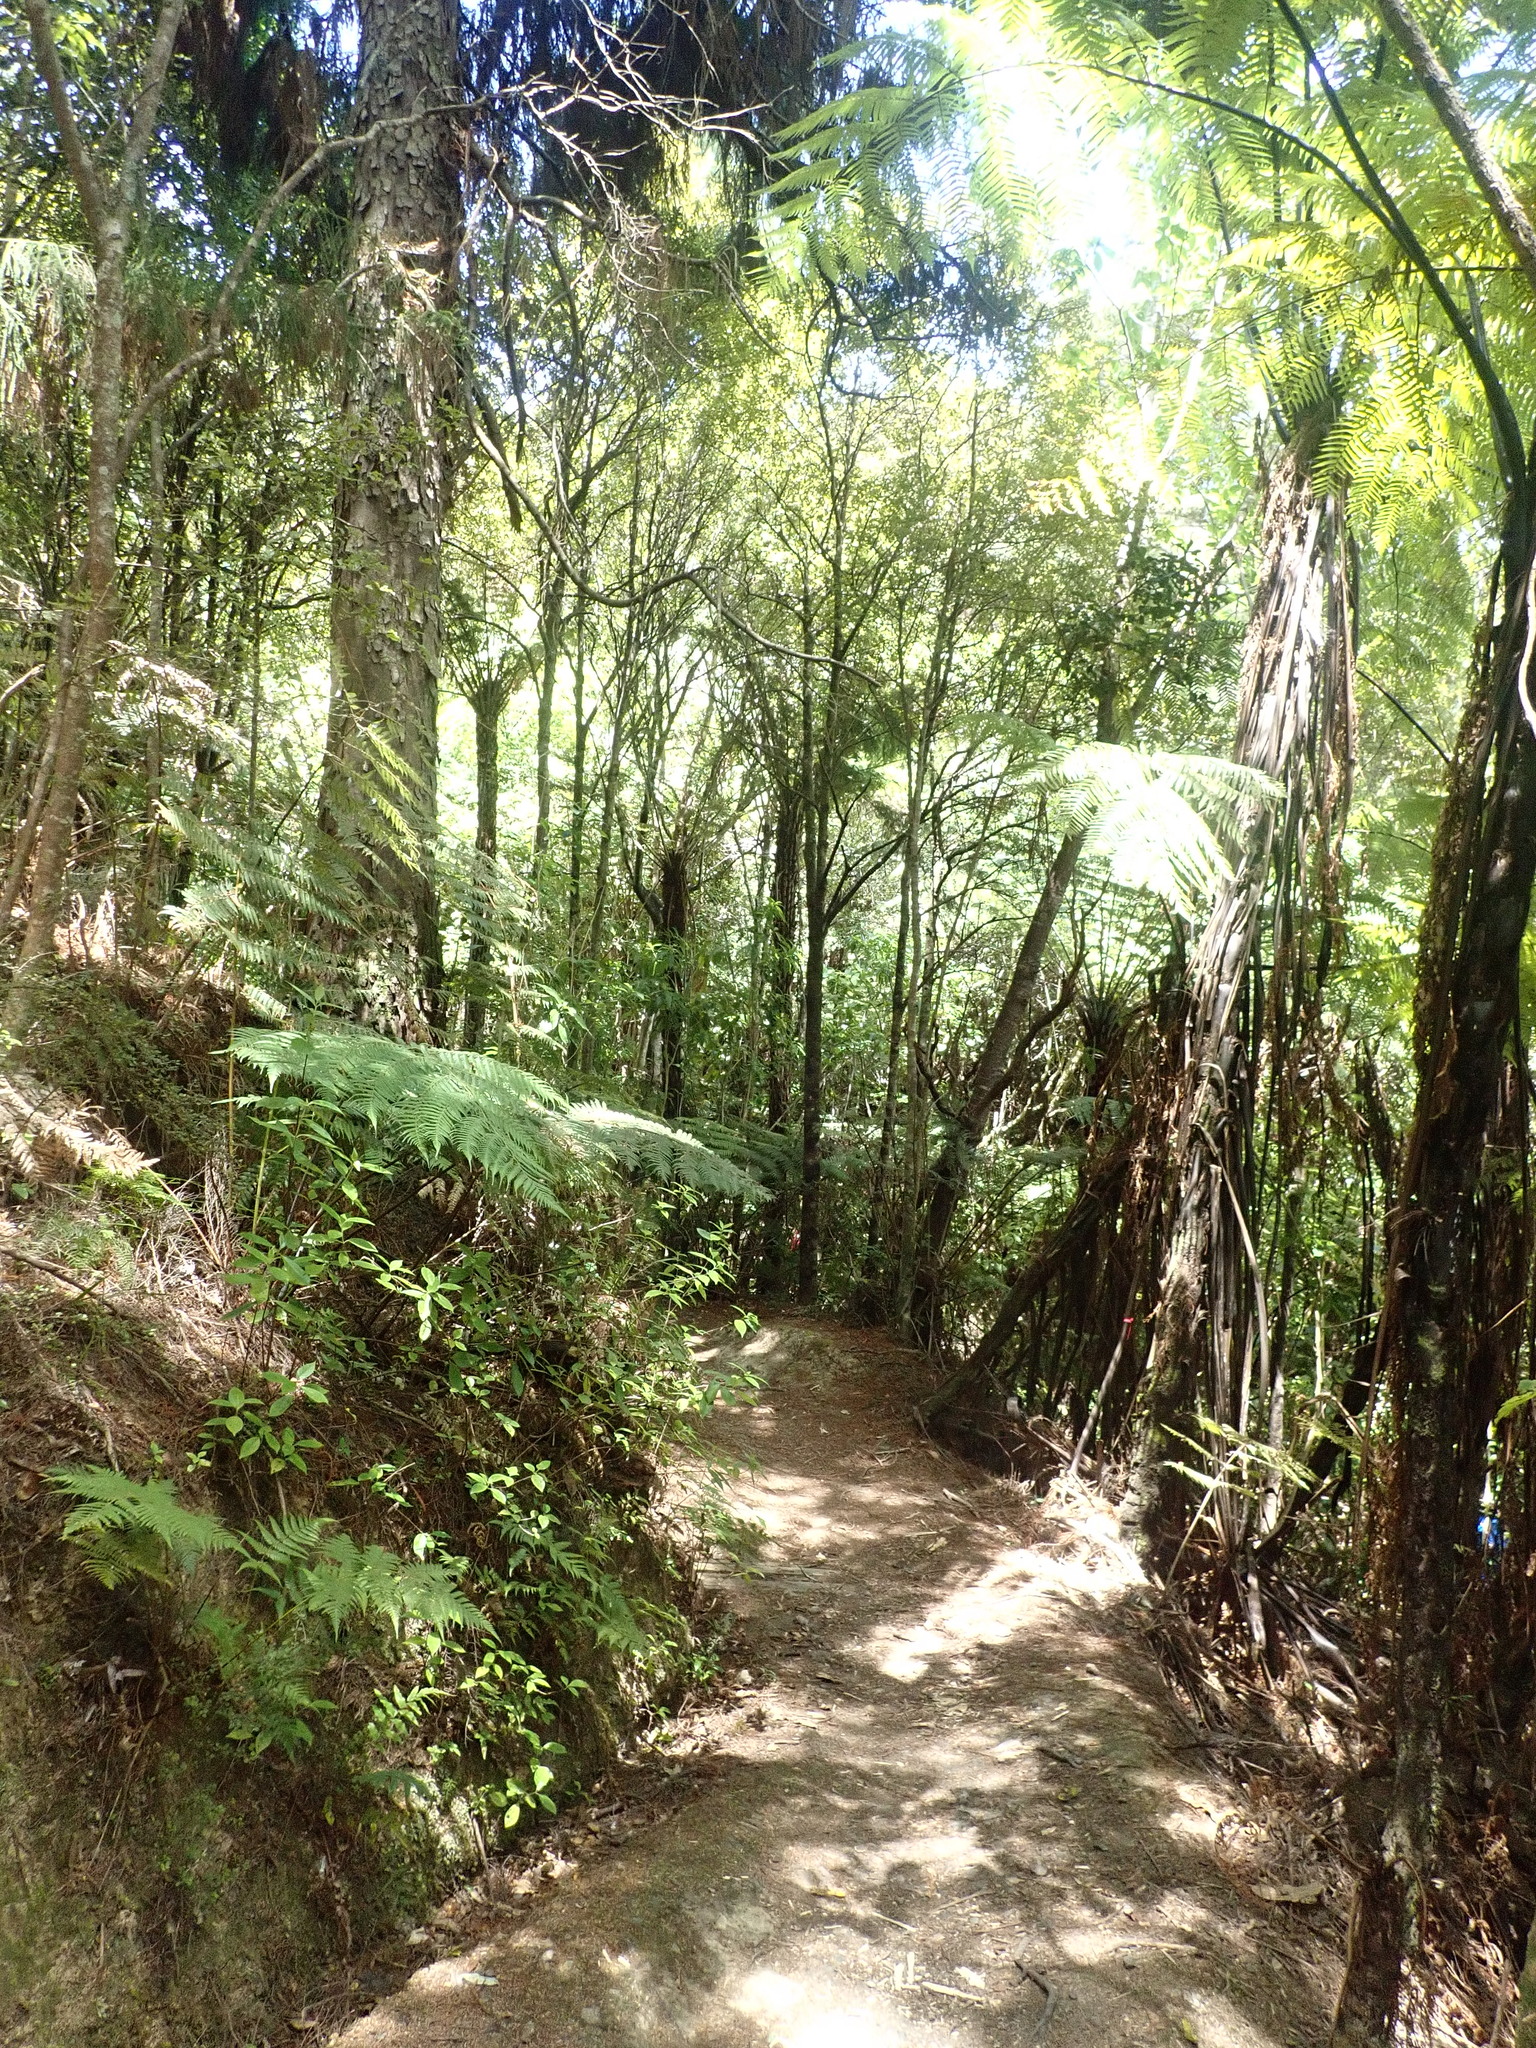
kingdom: Plantae
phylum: Tracheophyta
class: Polypodiopsida
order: Cyatheales
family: Cyatheaceae
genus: Alsophila
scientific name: Alsophila dealbata
